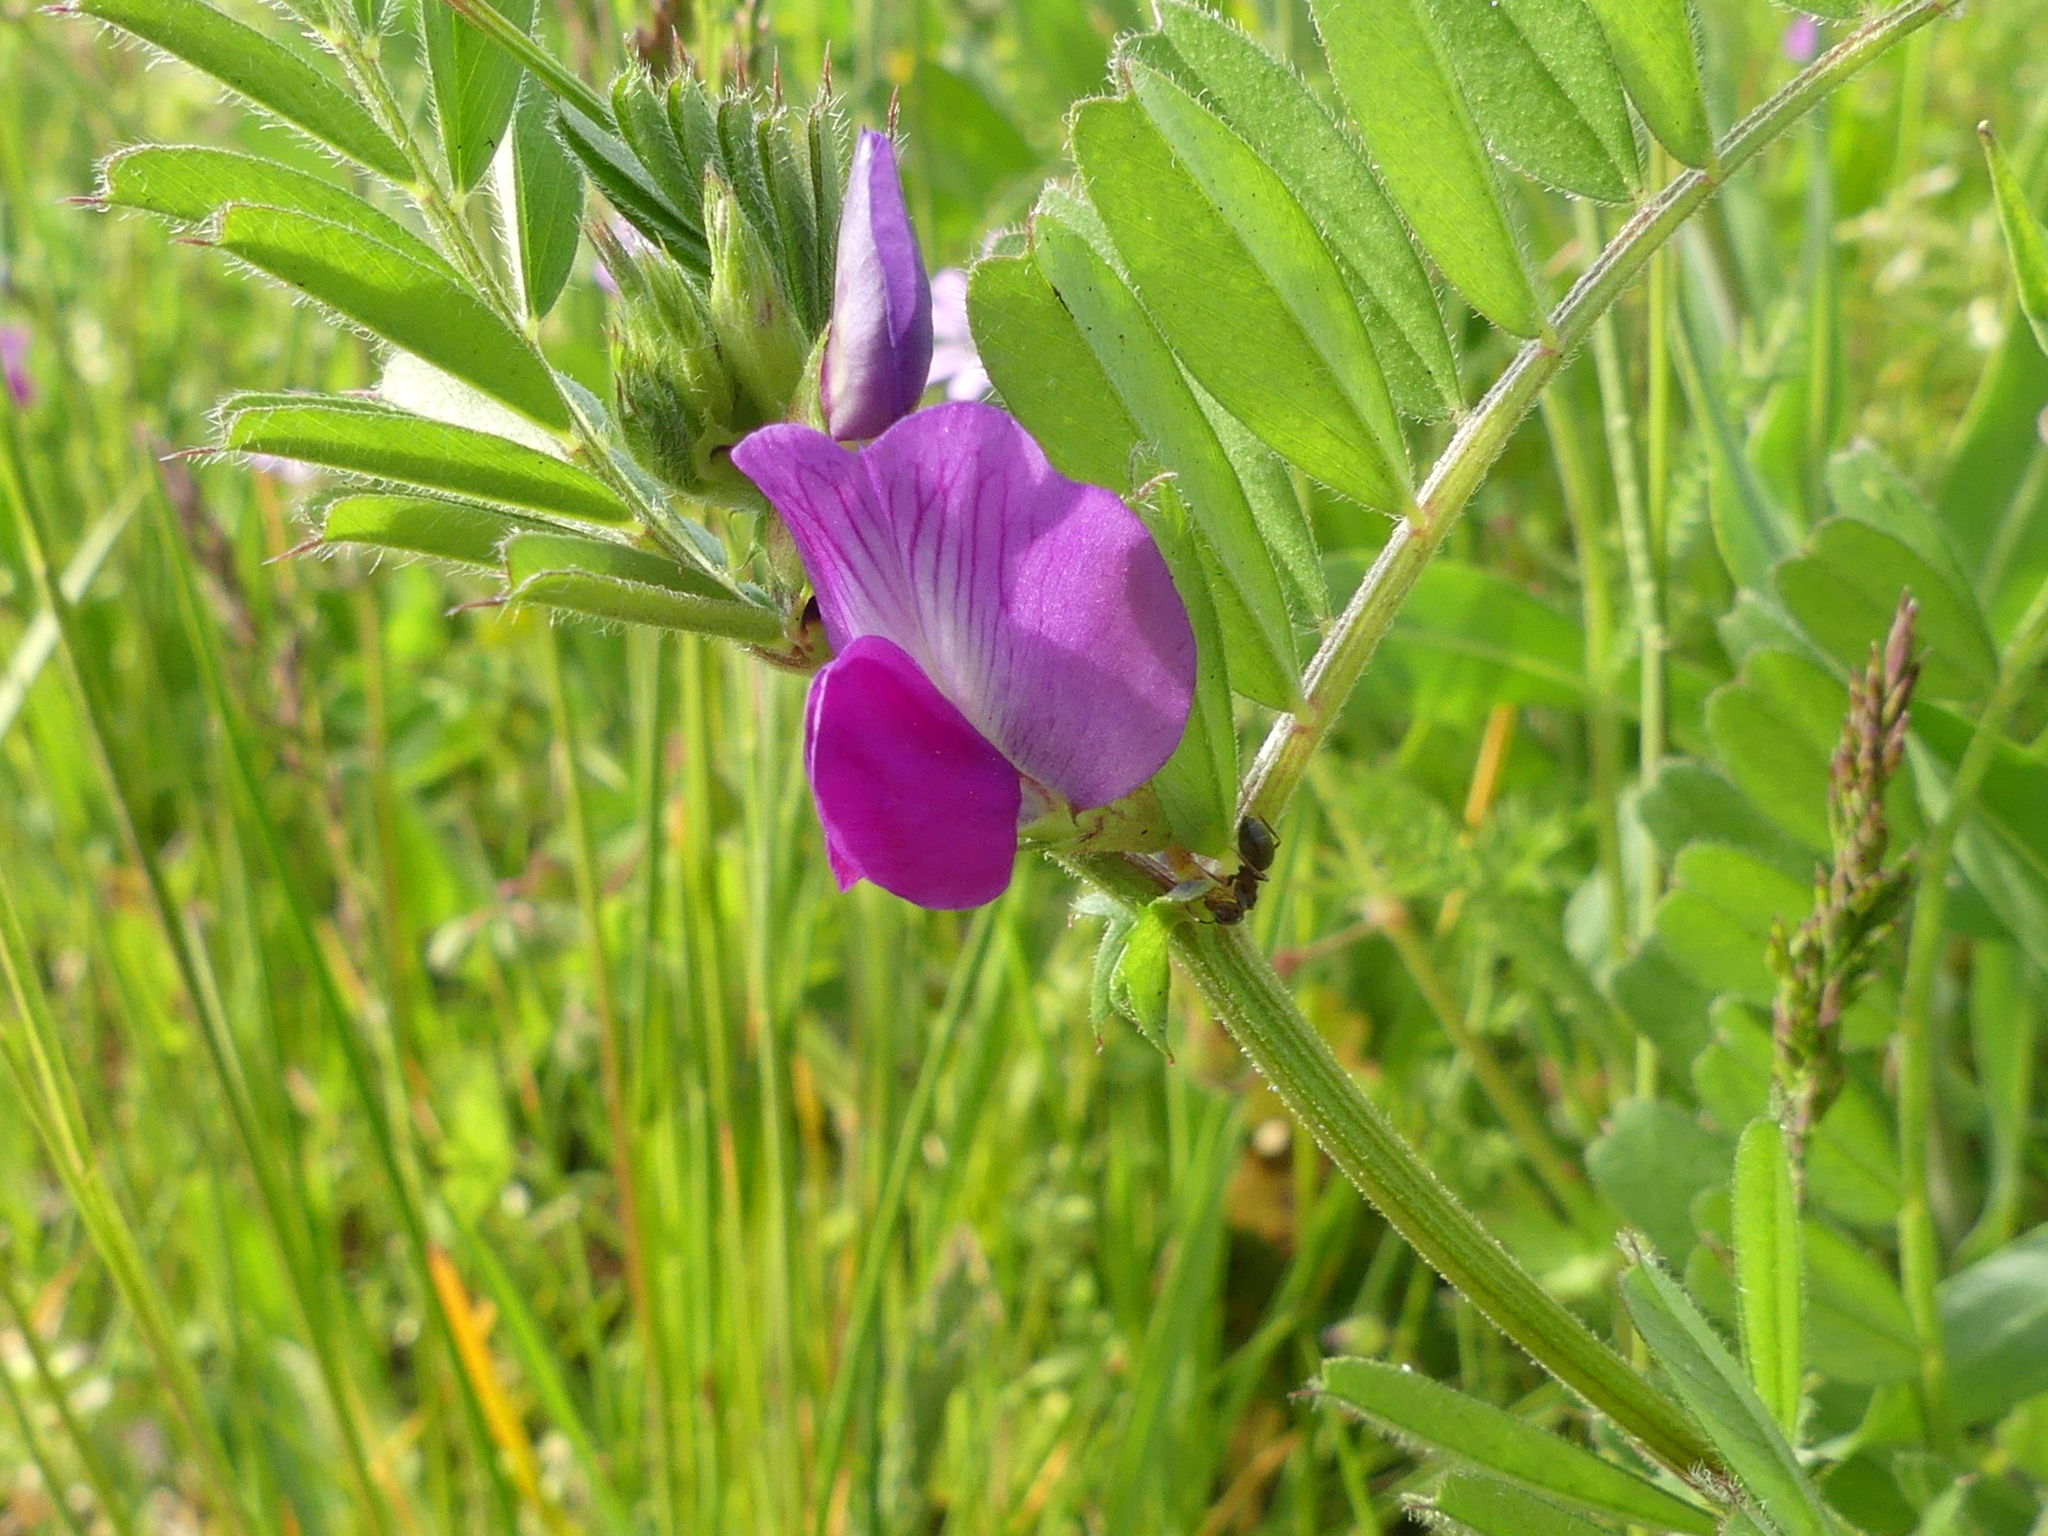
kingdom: Plantae
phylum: Tracheophyta
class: Magnoliopsida
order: Fabales
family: Fabaceae
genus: Vicia
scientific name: Vicia sativa
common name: Garden vetch
